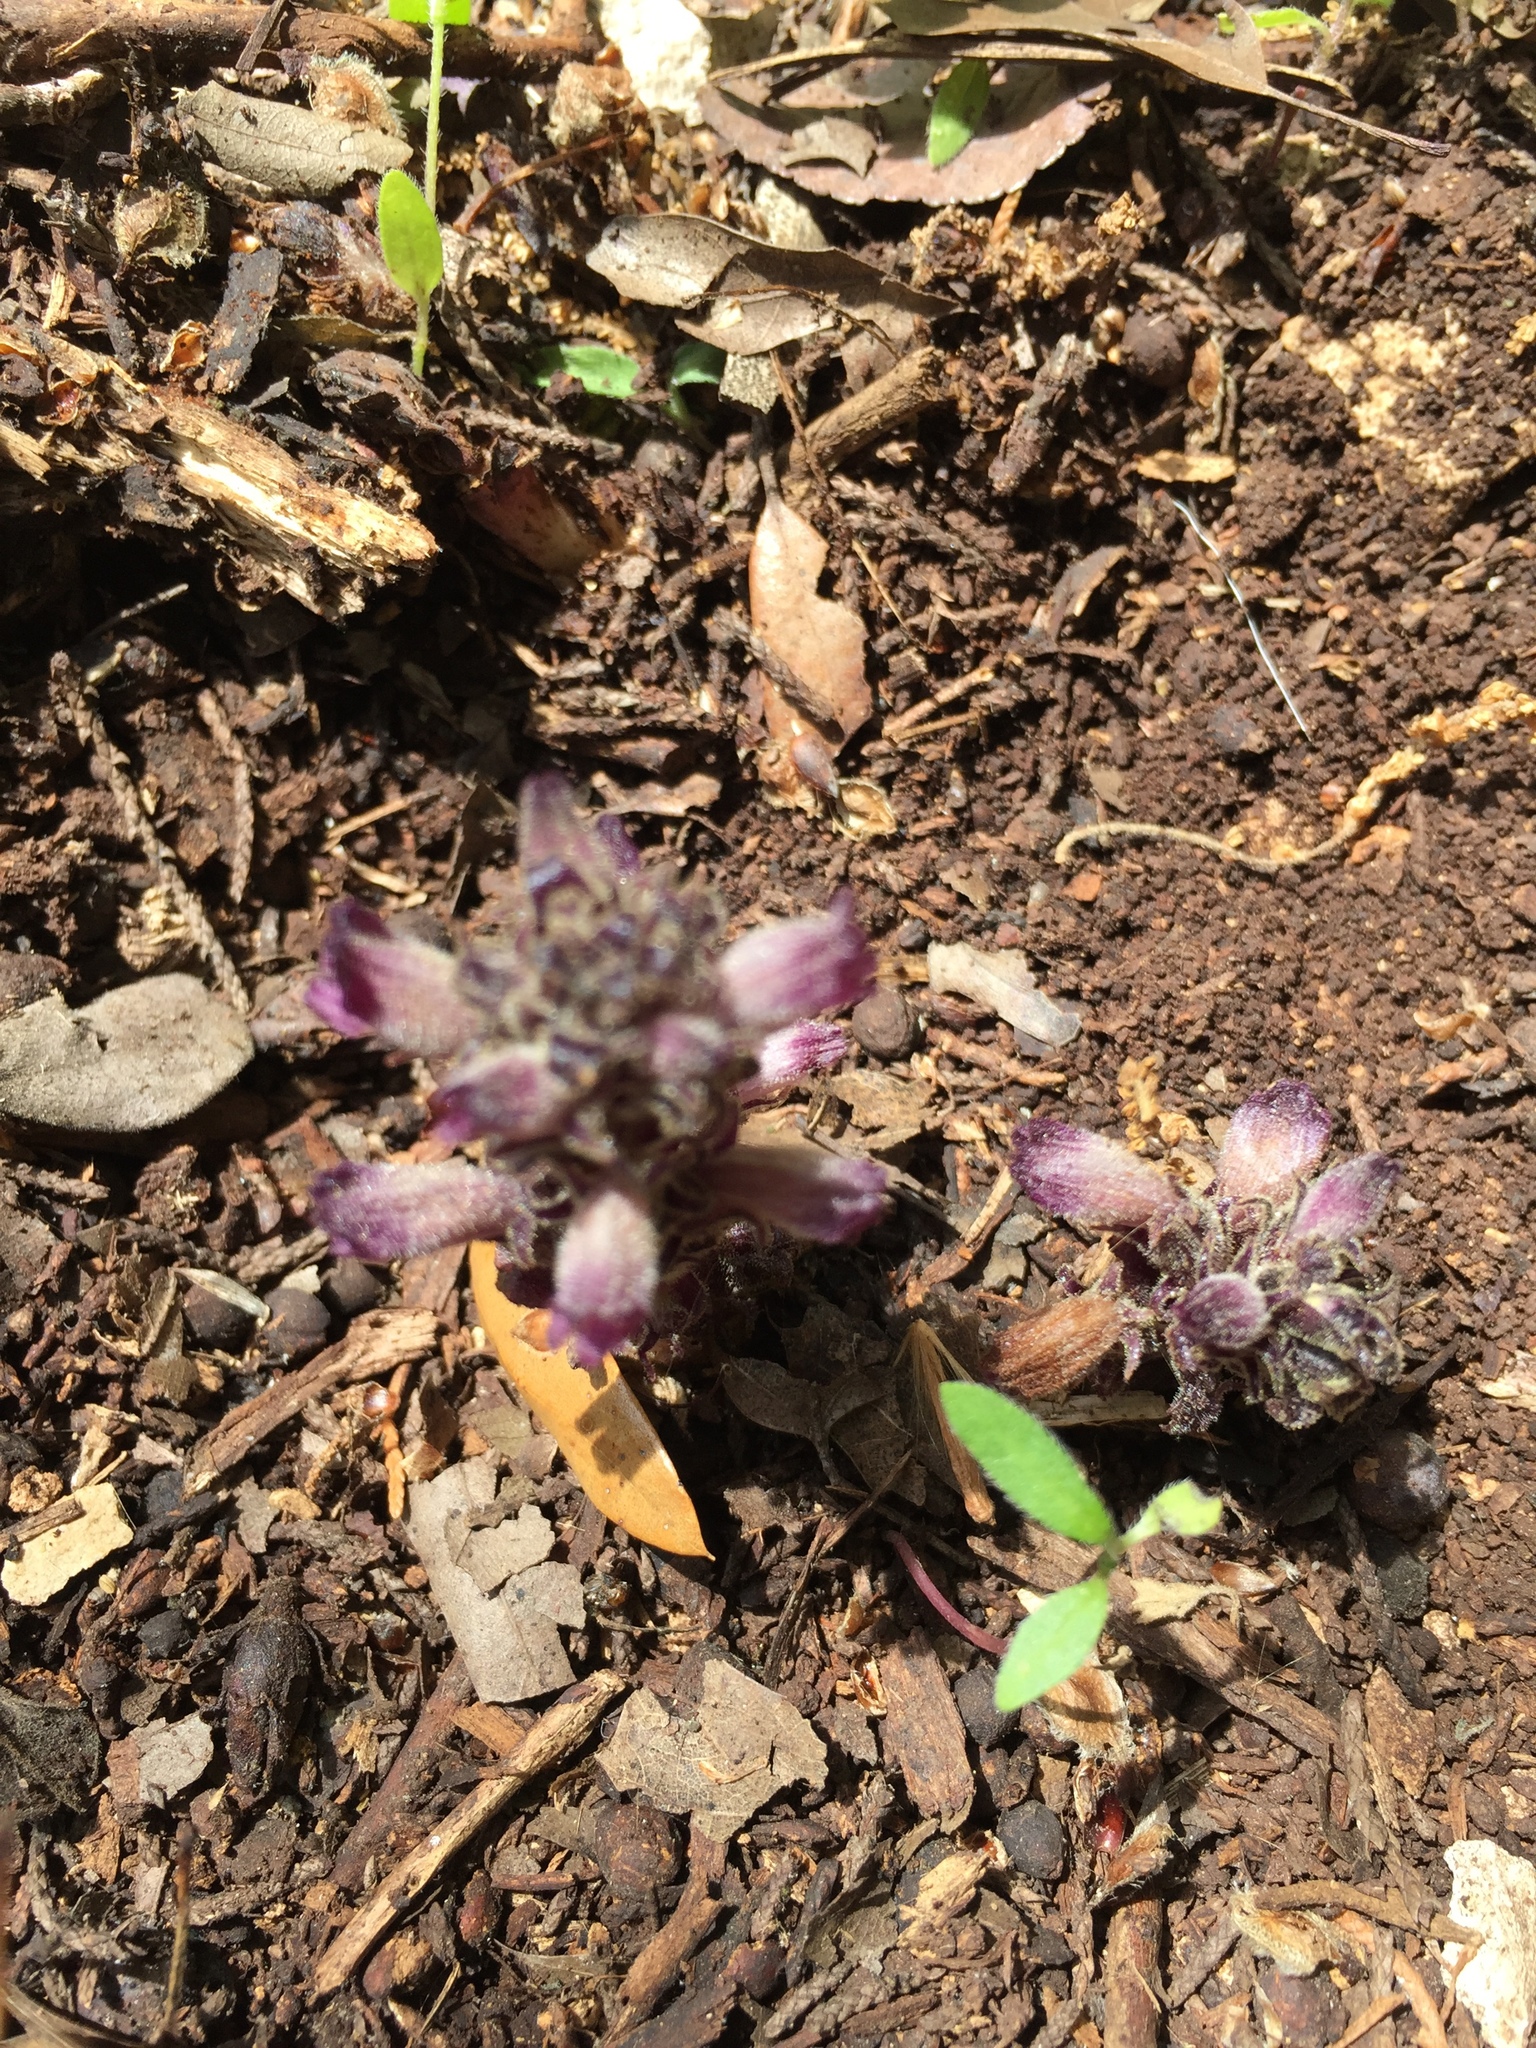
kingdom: Plantae
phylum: Tracheophyta
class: Magnoliopsida
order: Lamiales
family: Orobanchaceae
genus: Aphyllon
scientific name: Aphyllon ludovicianum
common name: Louisiana broomrape
